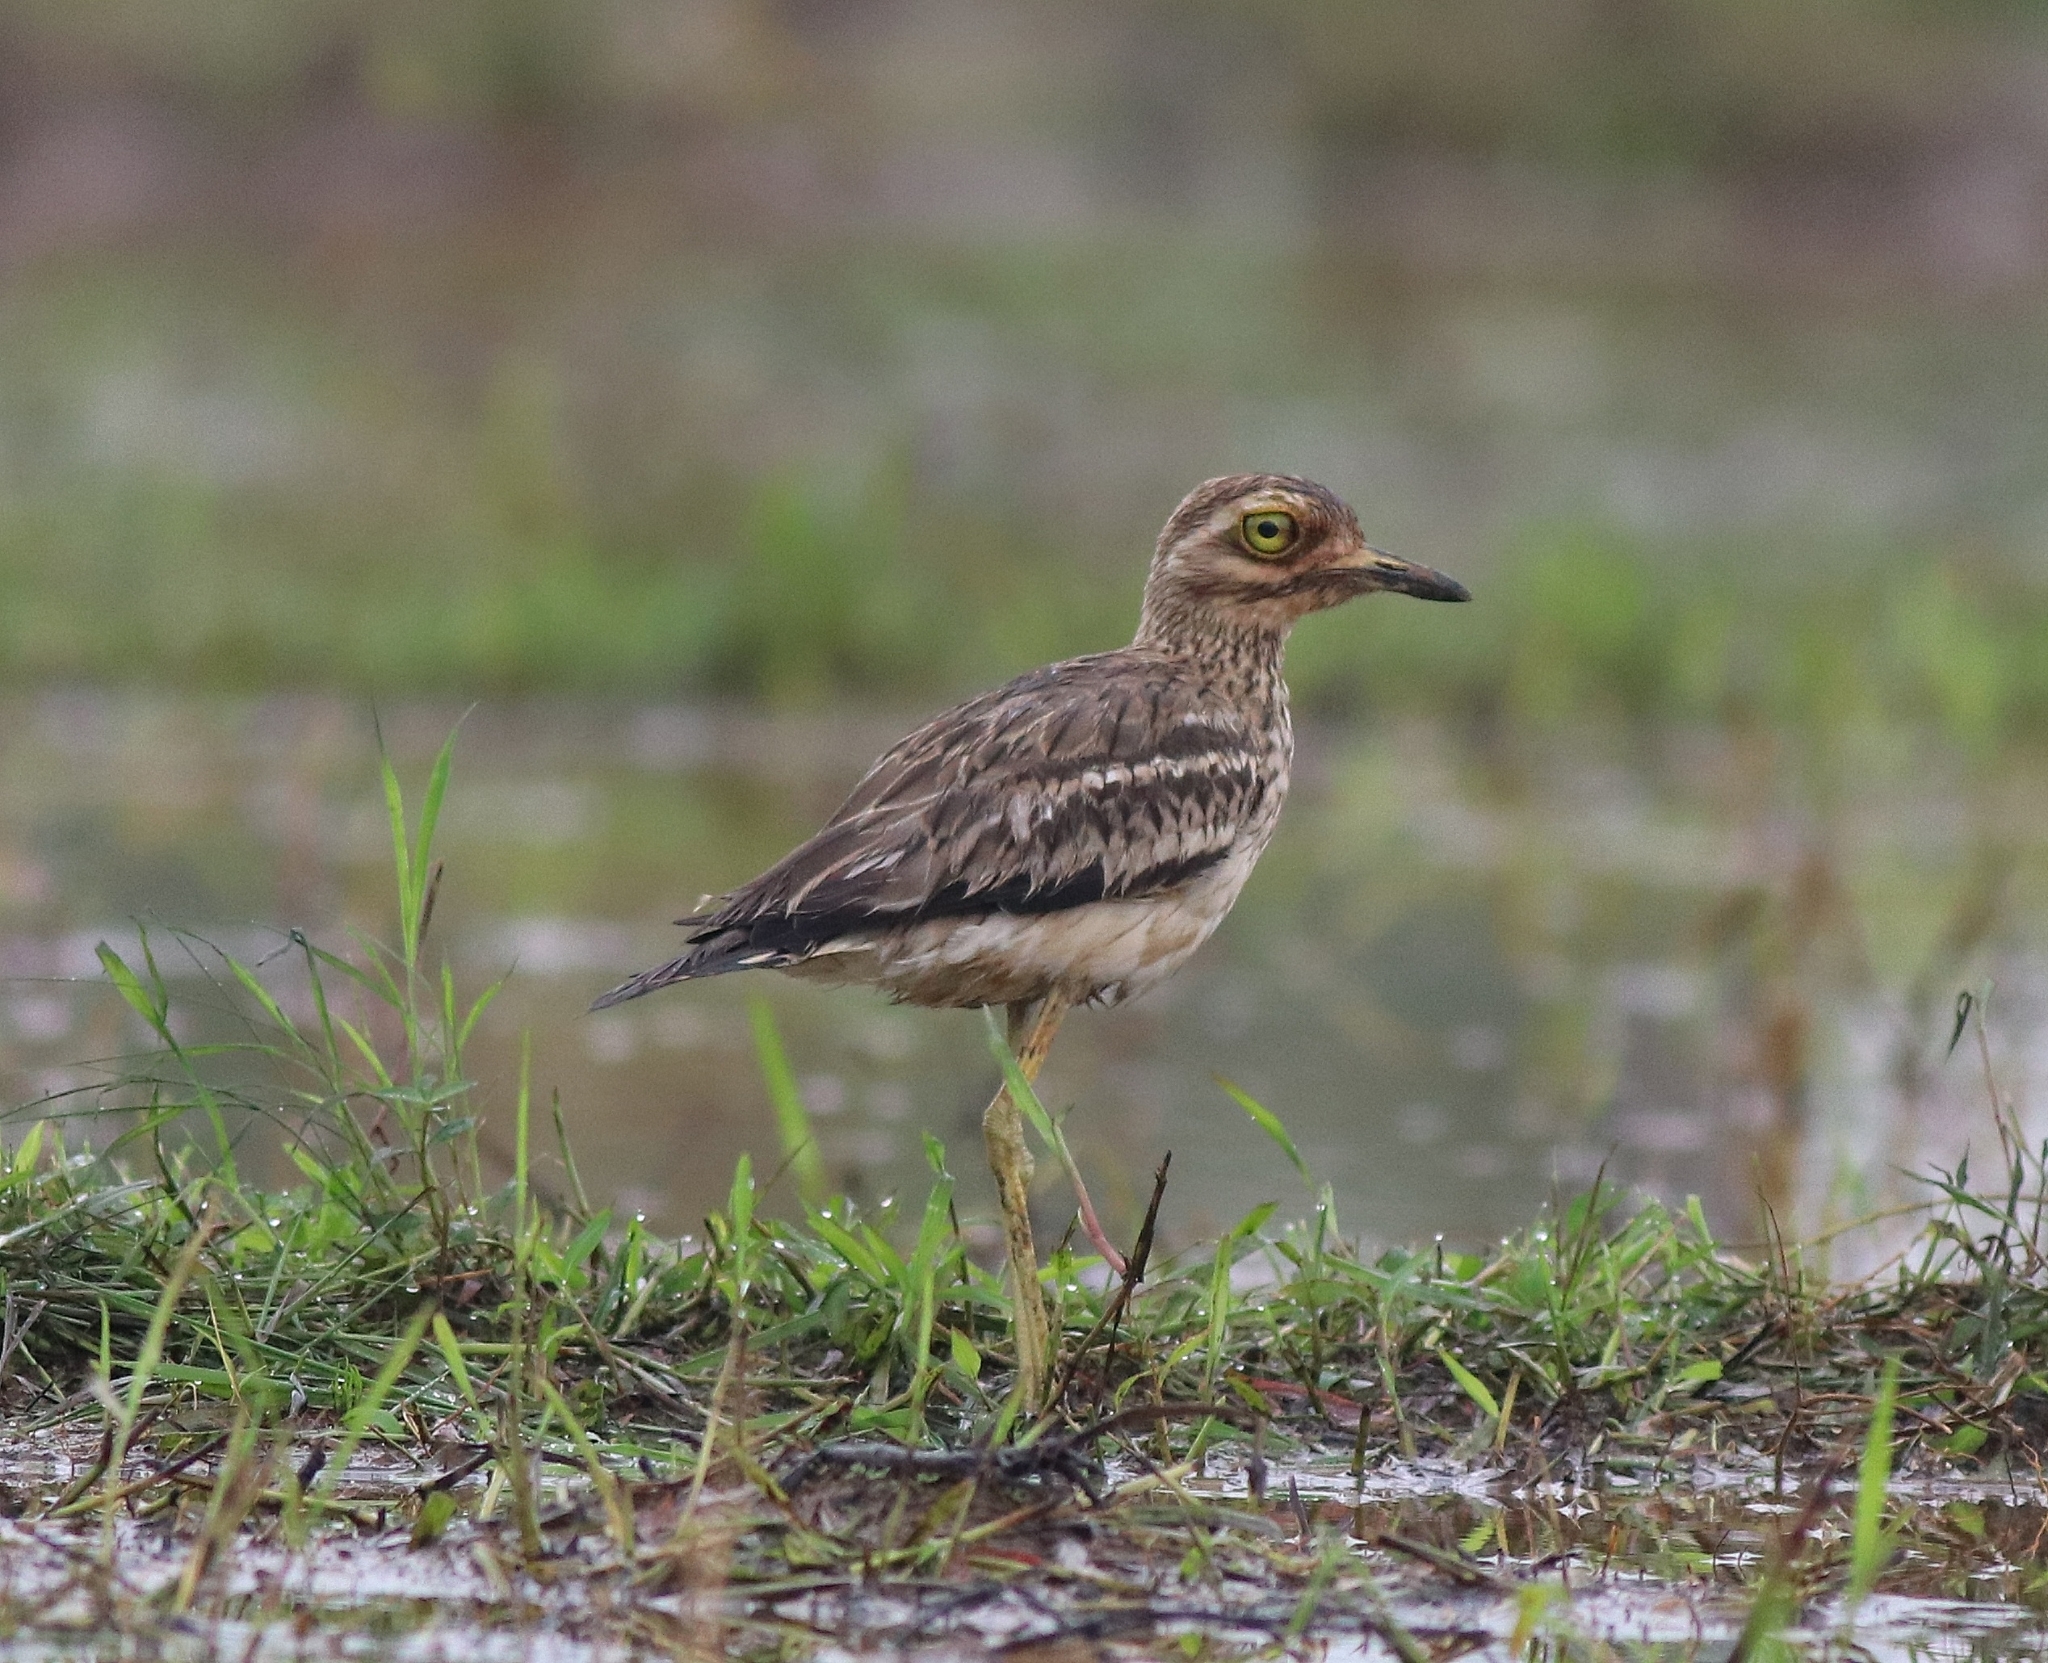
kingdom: Animalia
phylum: Chordata
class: Aves
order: Charadriiformes
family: Burhinidae
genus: Burhinus
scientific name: Burhinus indicus
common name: Indian thick-knee
